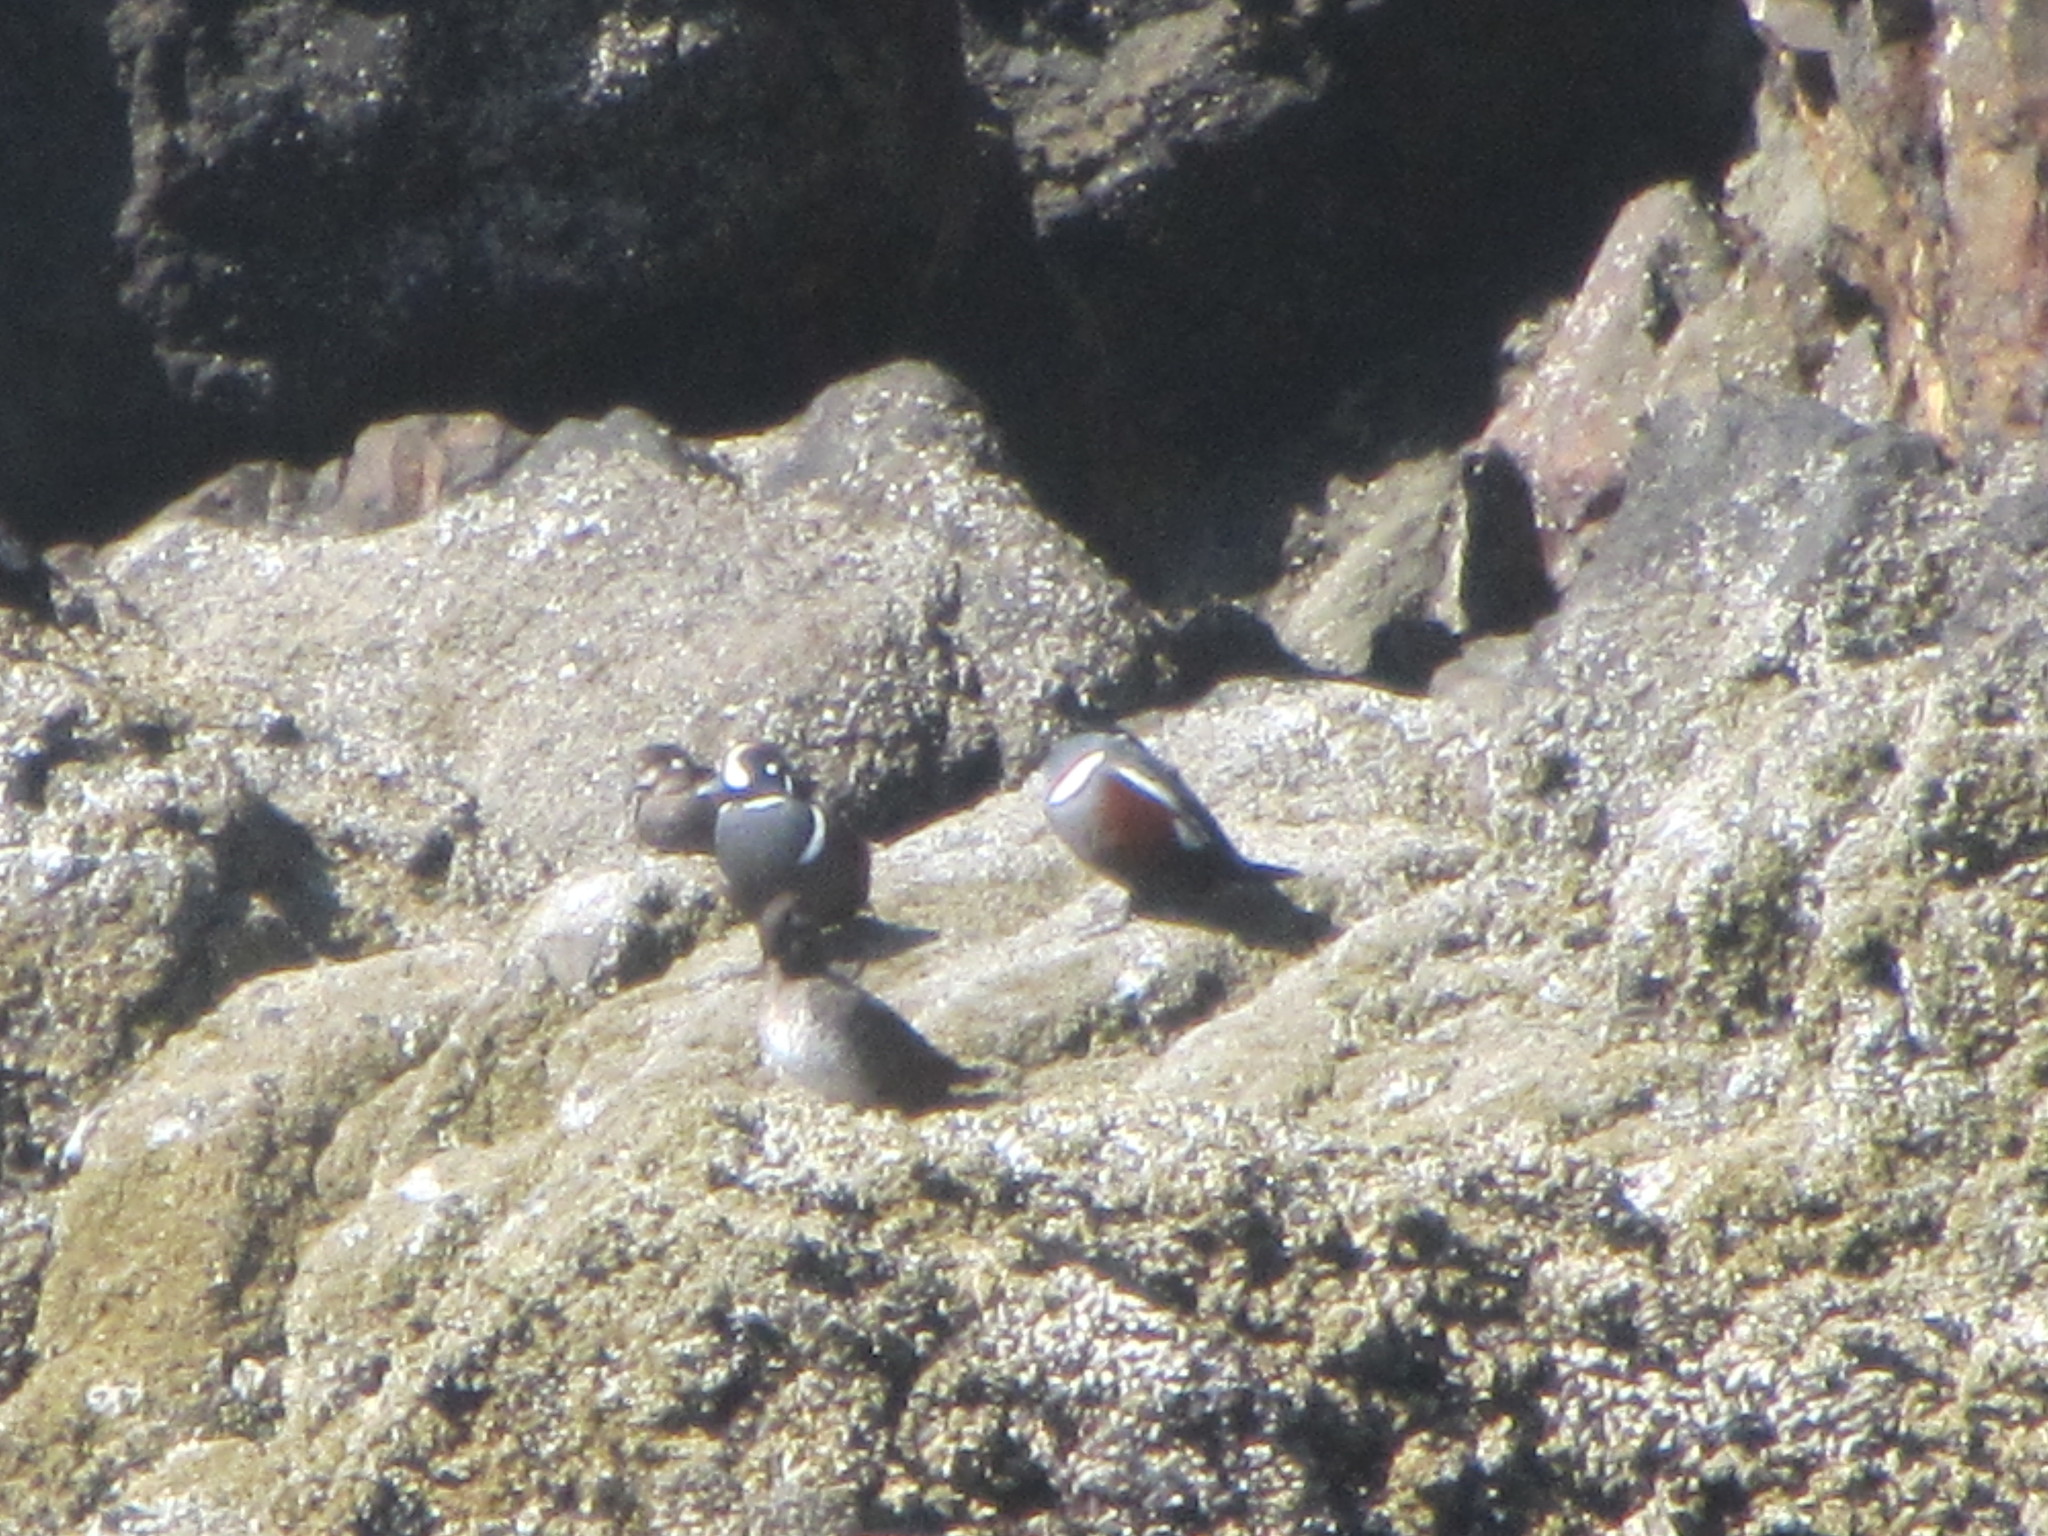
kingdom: Animalia
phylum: Chordata
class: Aves
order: Anseriformes
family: Anatidae
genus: Histrionicus
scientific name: Histrionicus histrionicus
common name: Harlequin duck
